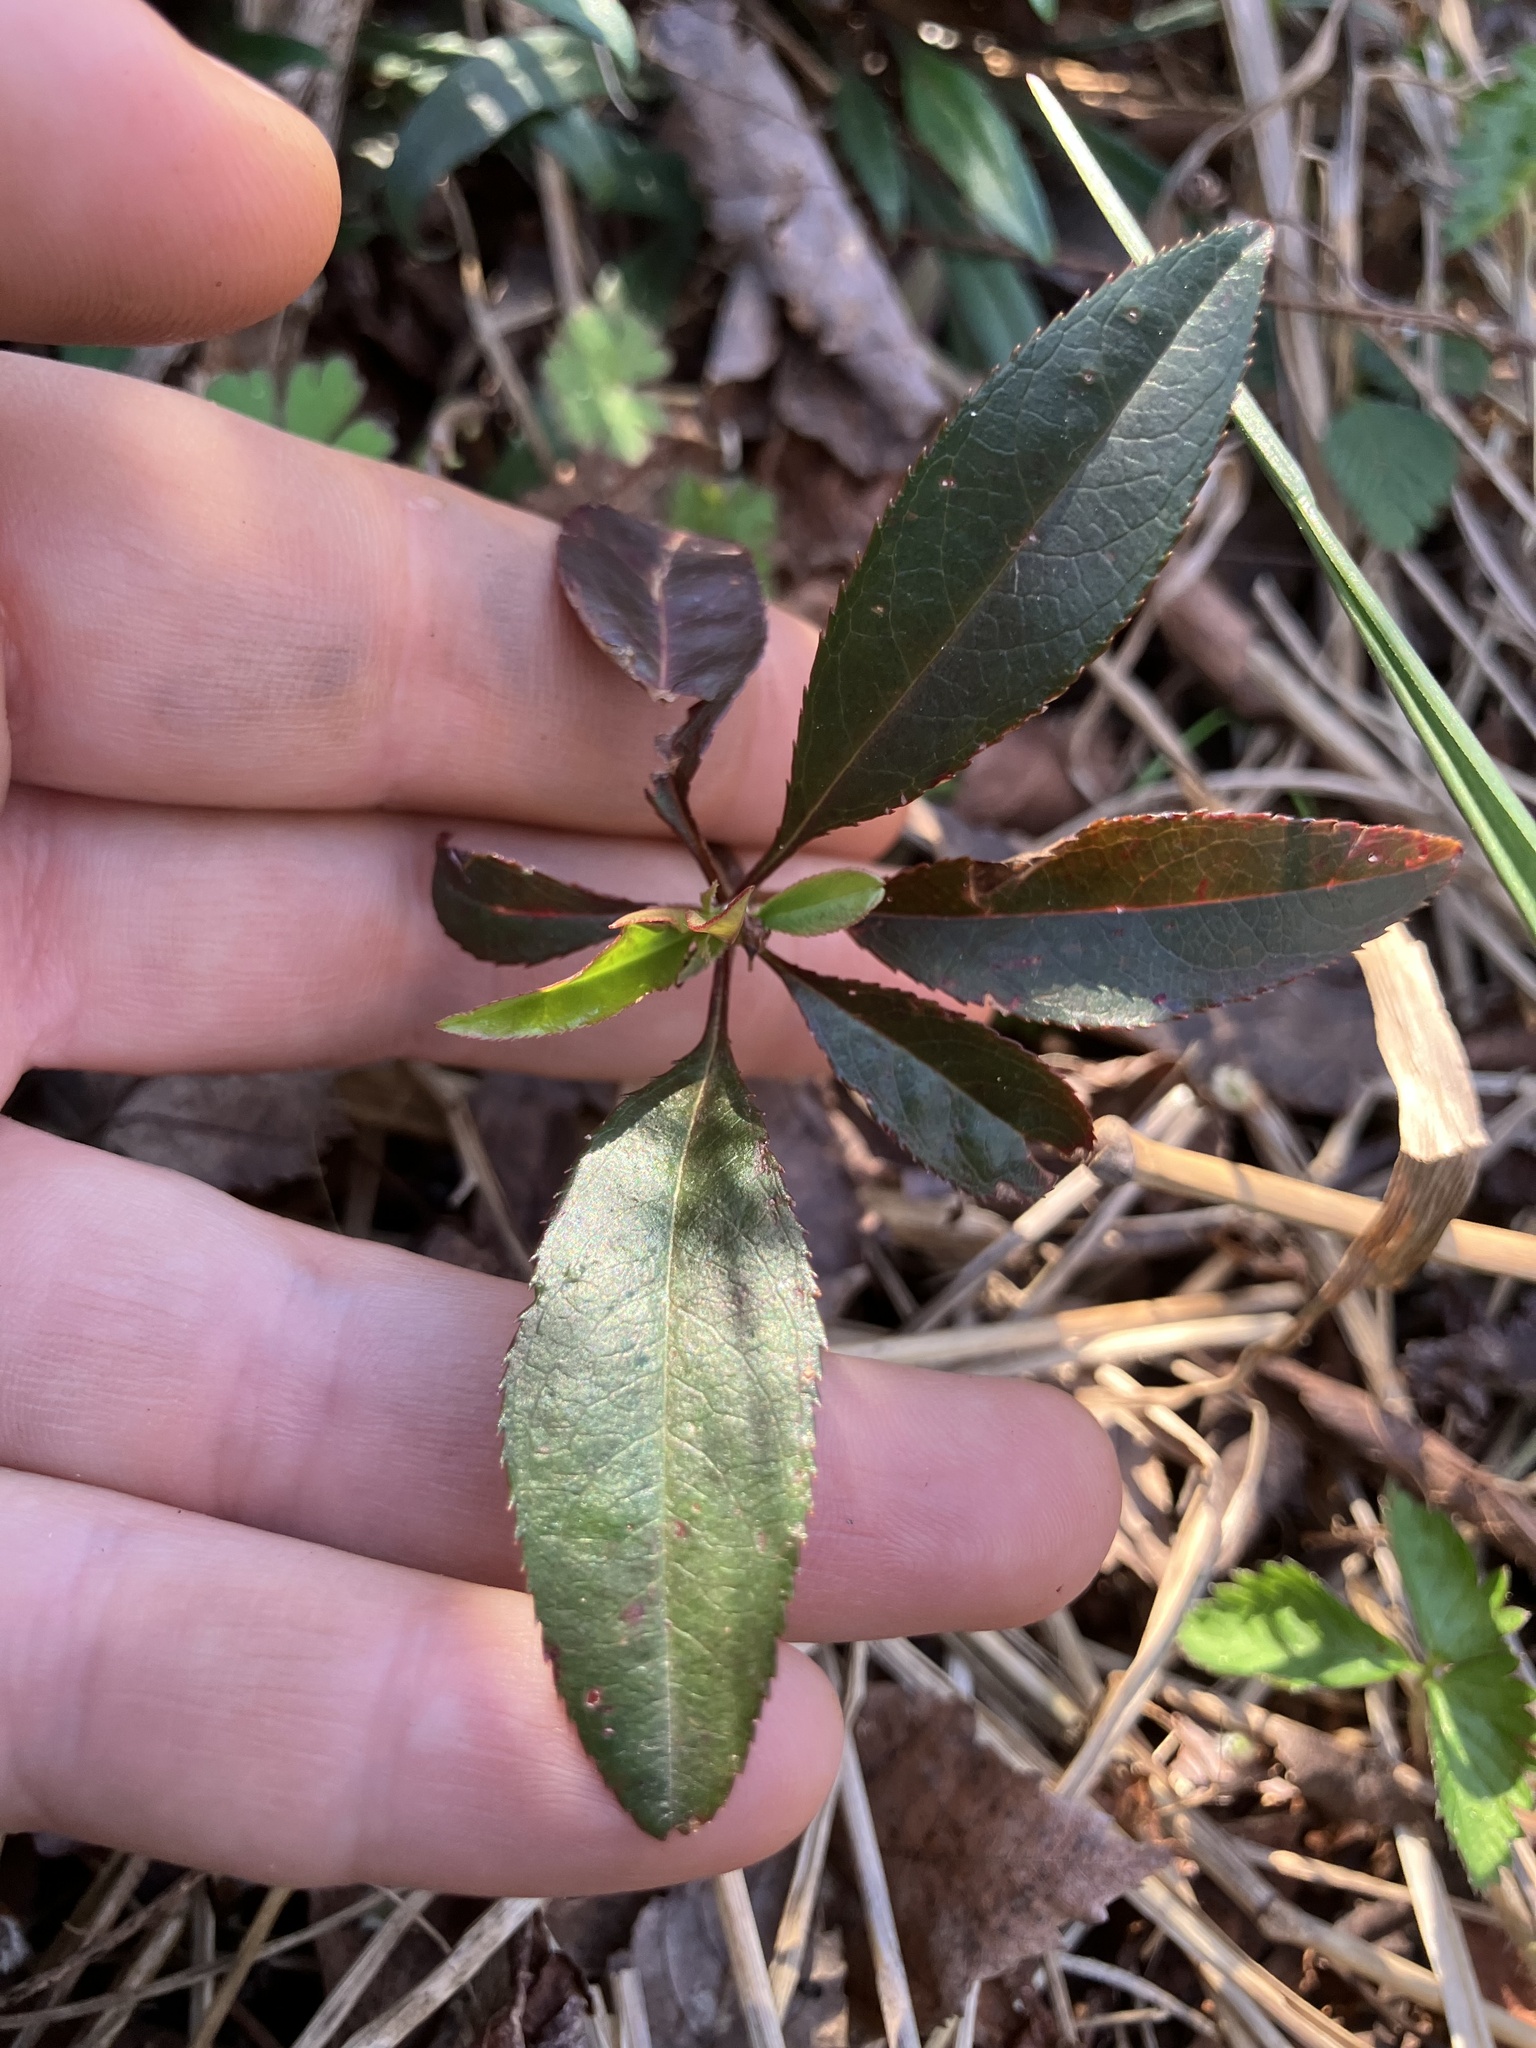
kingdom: Plantae
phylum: Tracheophyta
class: Magnoliopsida
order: Rosales
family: Rosaceae
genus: Prunus
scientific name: Prunus serotina
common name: Black cherry
